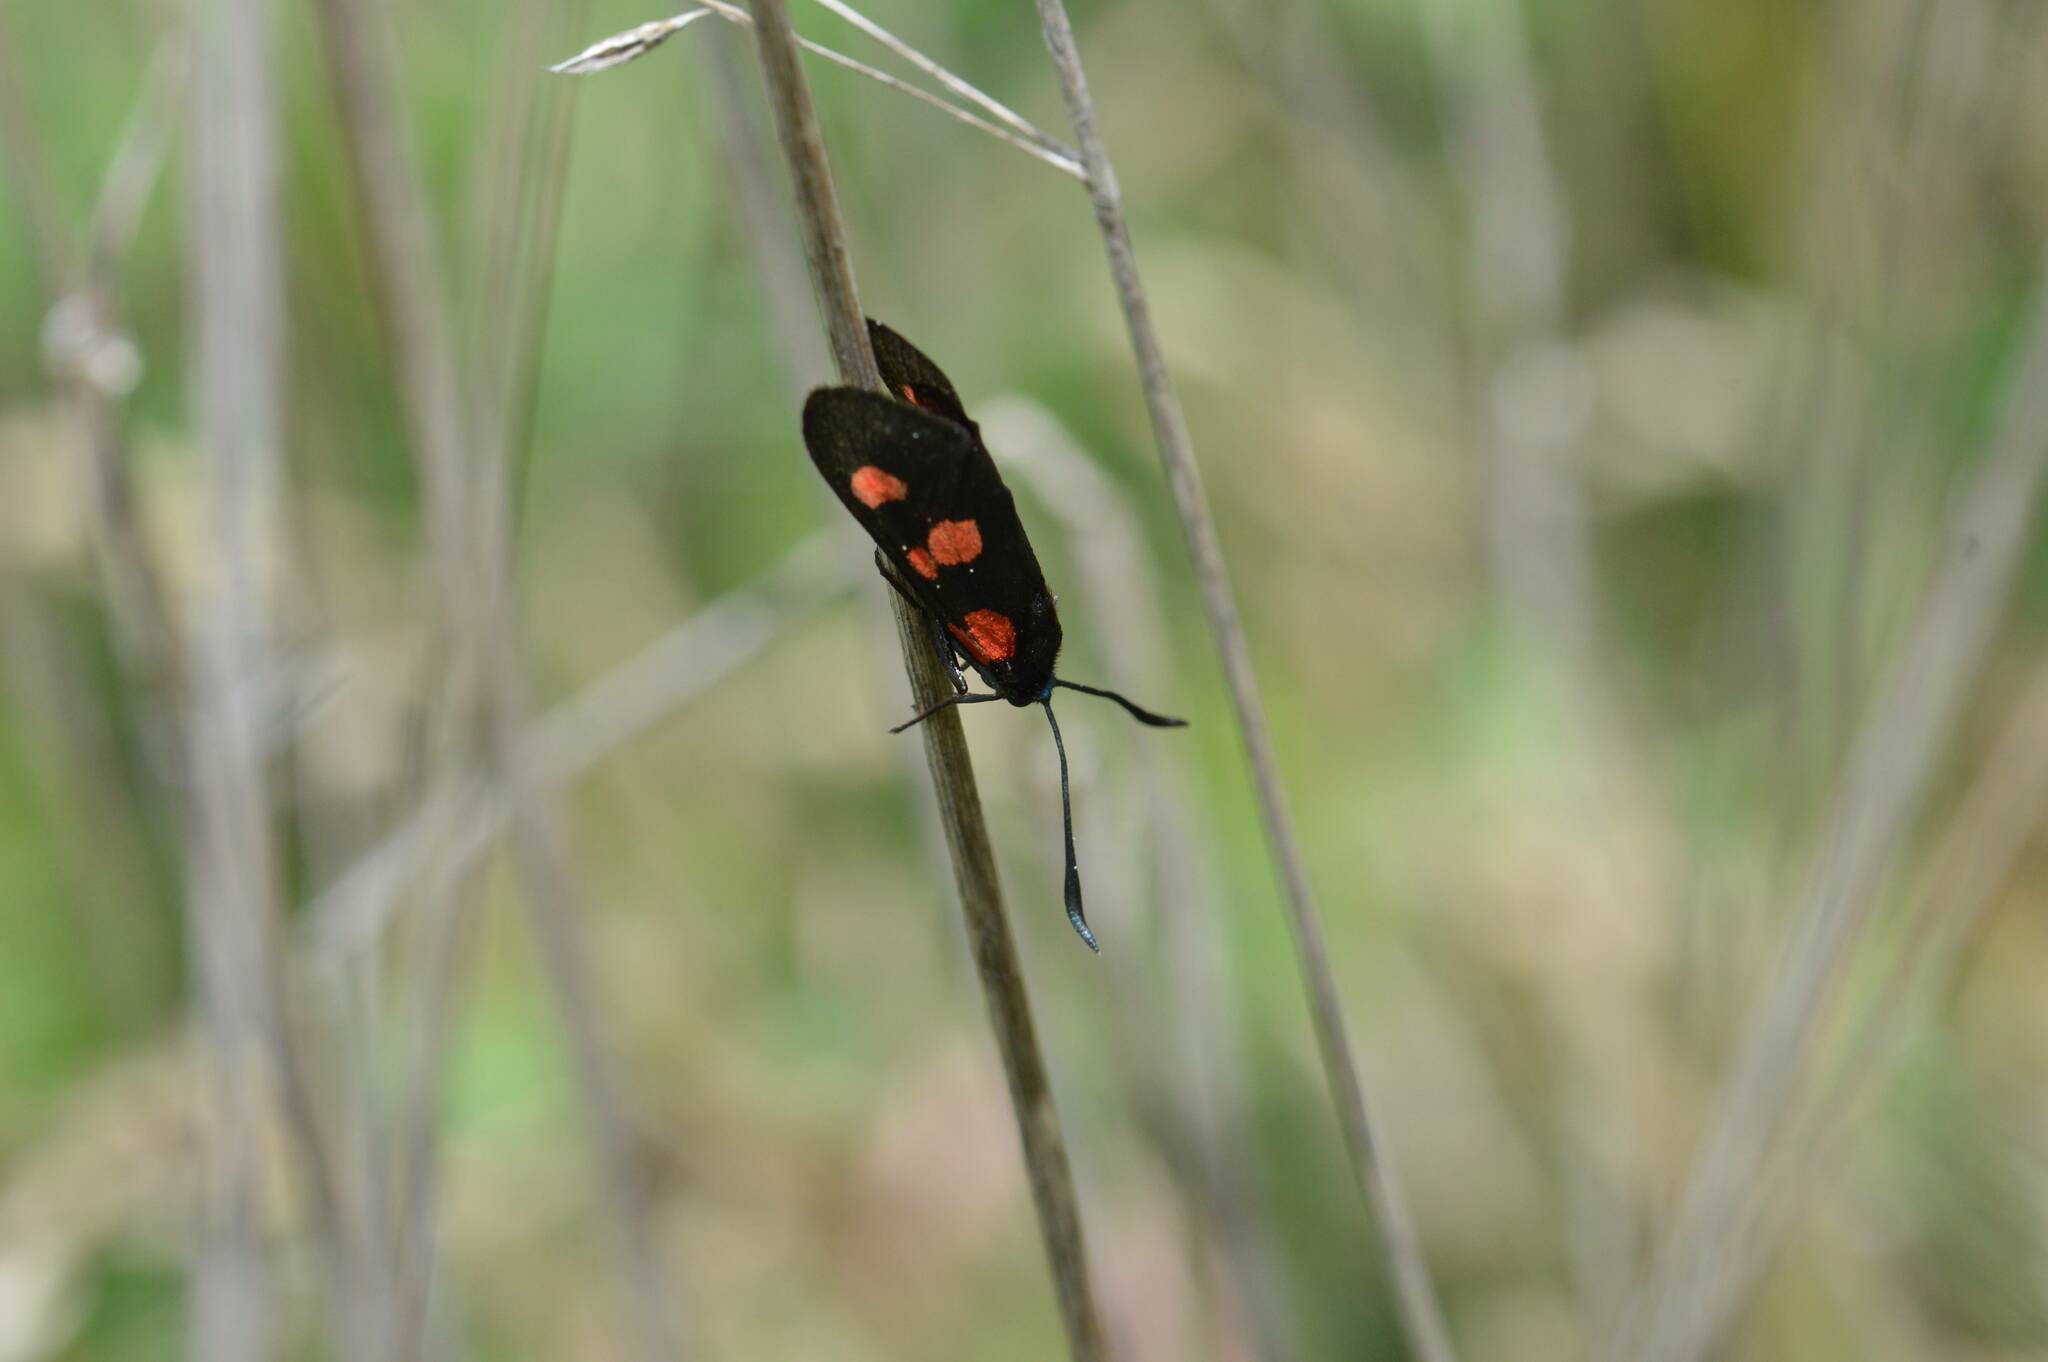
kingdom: Animalia
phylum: Arthropoda
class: Insecta
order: Lepidoptera
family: Zygaenidae
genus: Zygaena
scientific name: Zygaena trifolii
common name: Five-spot burnet
